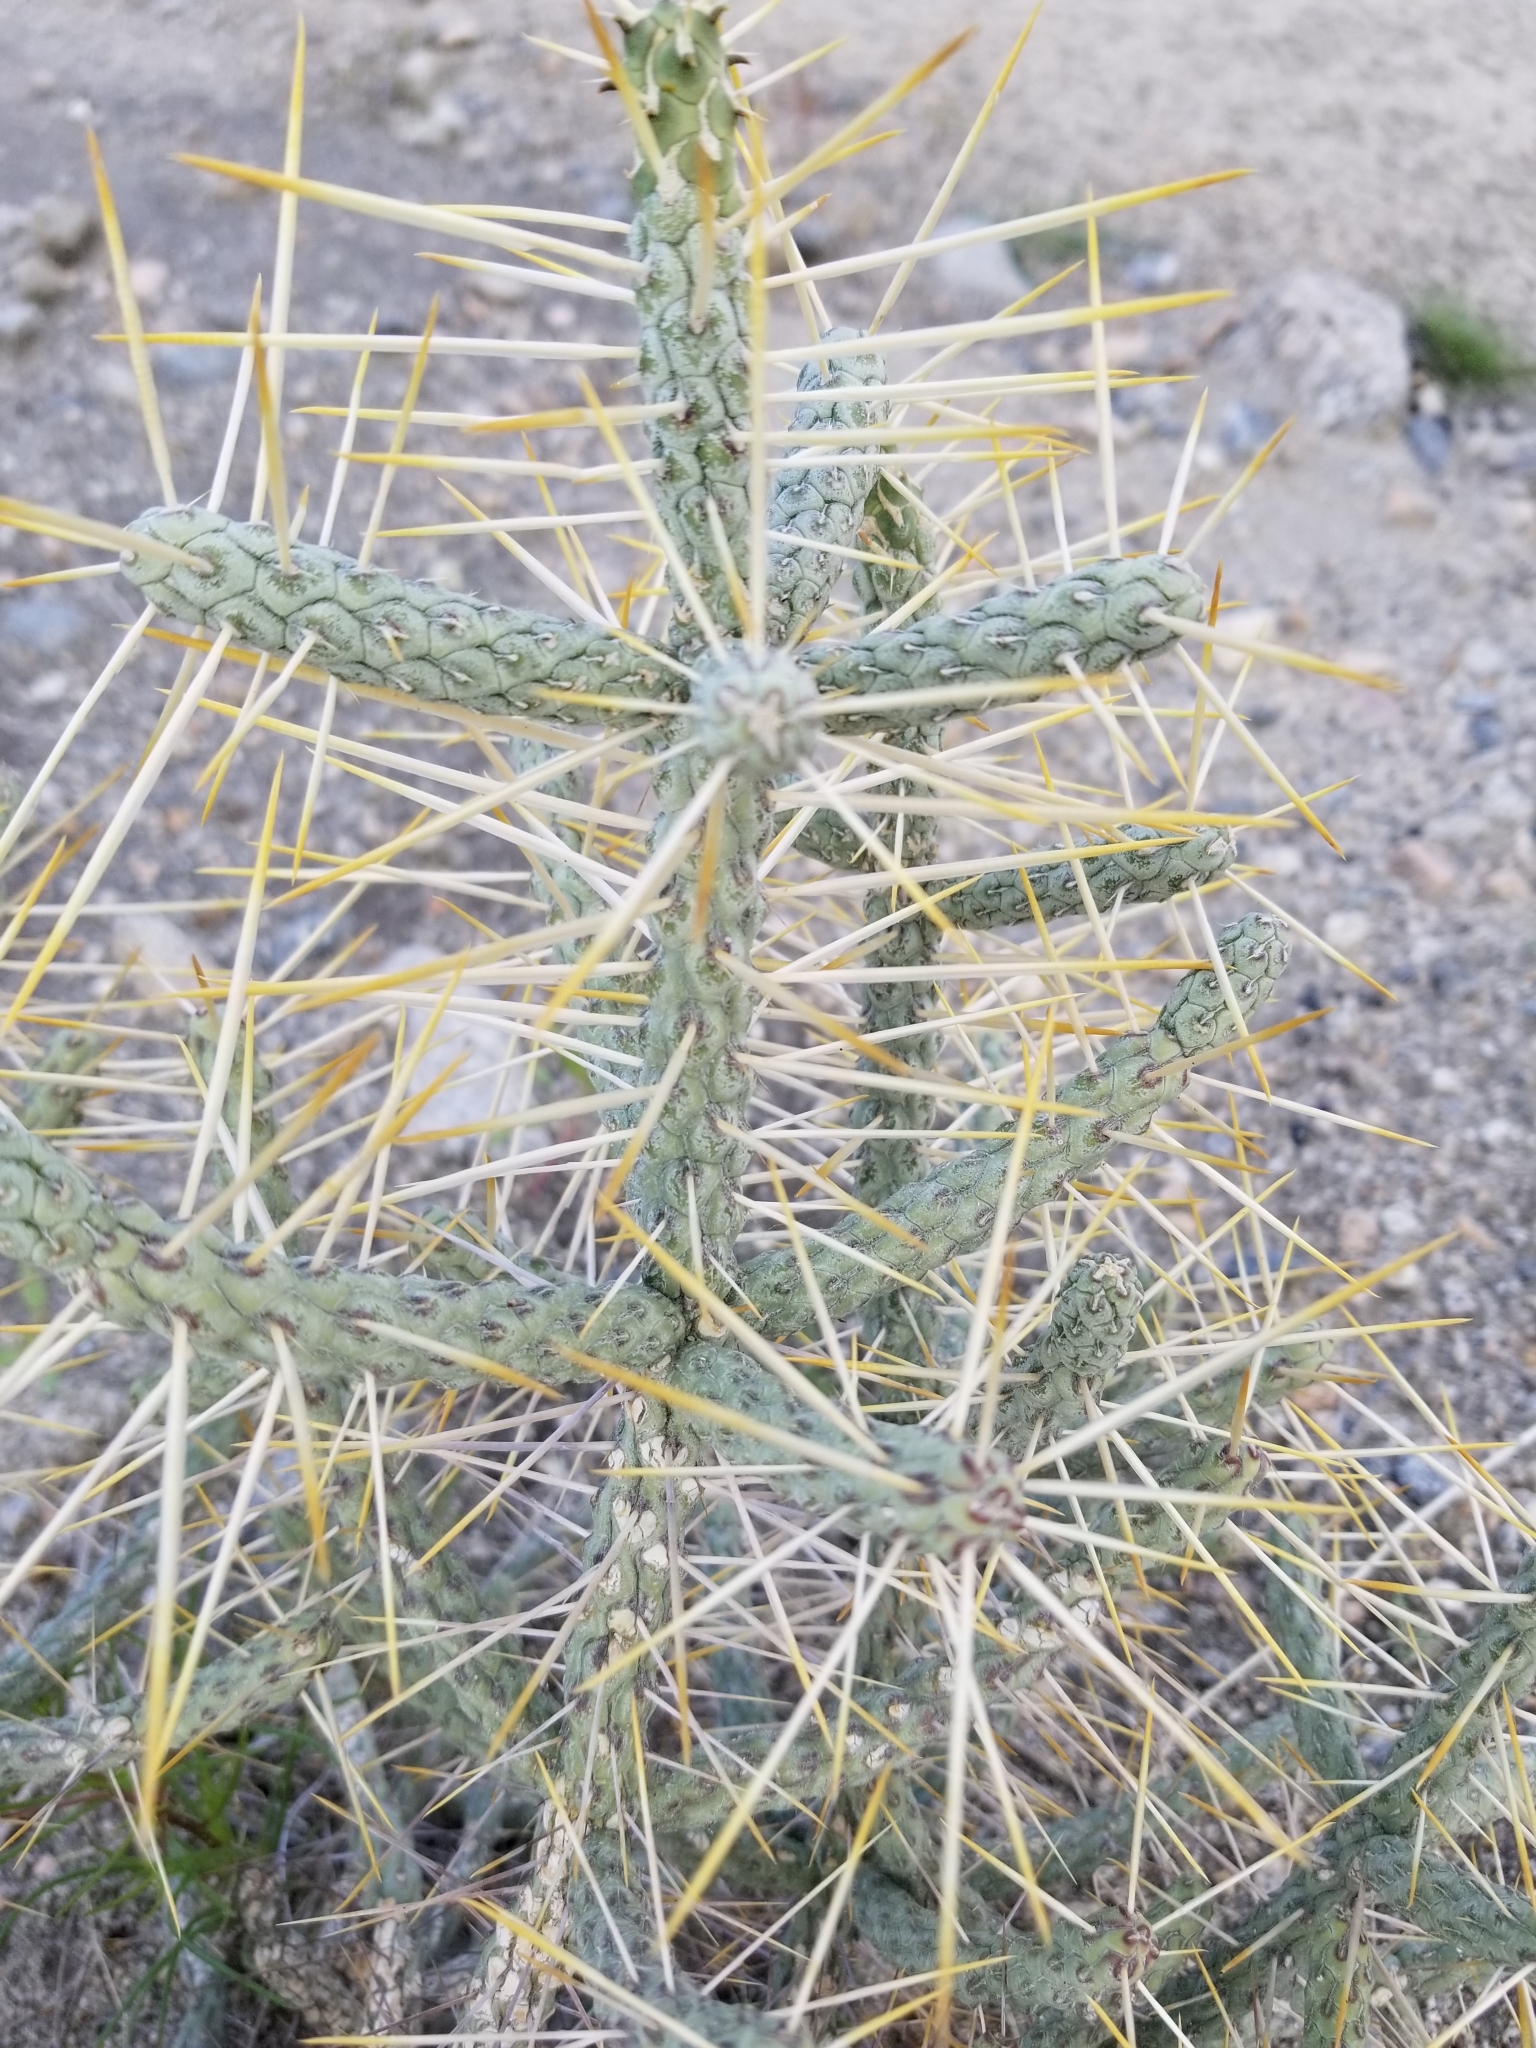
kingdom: Plantae
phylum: Tracheophyta
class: Magnoliopsida
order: Caryophyllales
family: Cactaceae
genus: Cylindropuntia
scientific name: Cylindropuntia ramosissima
